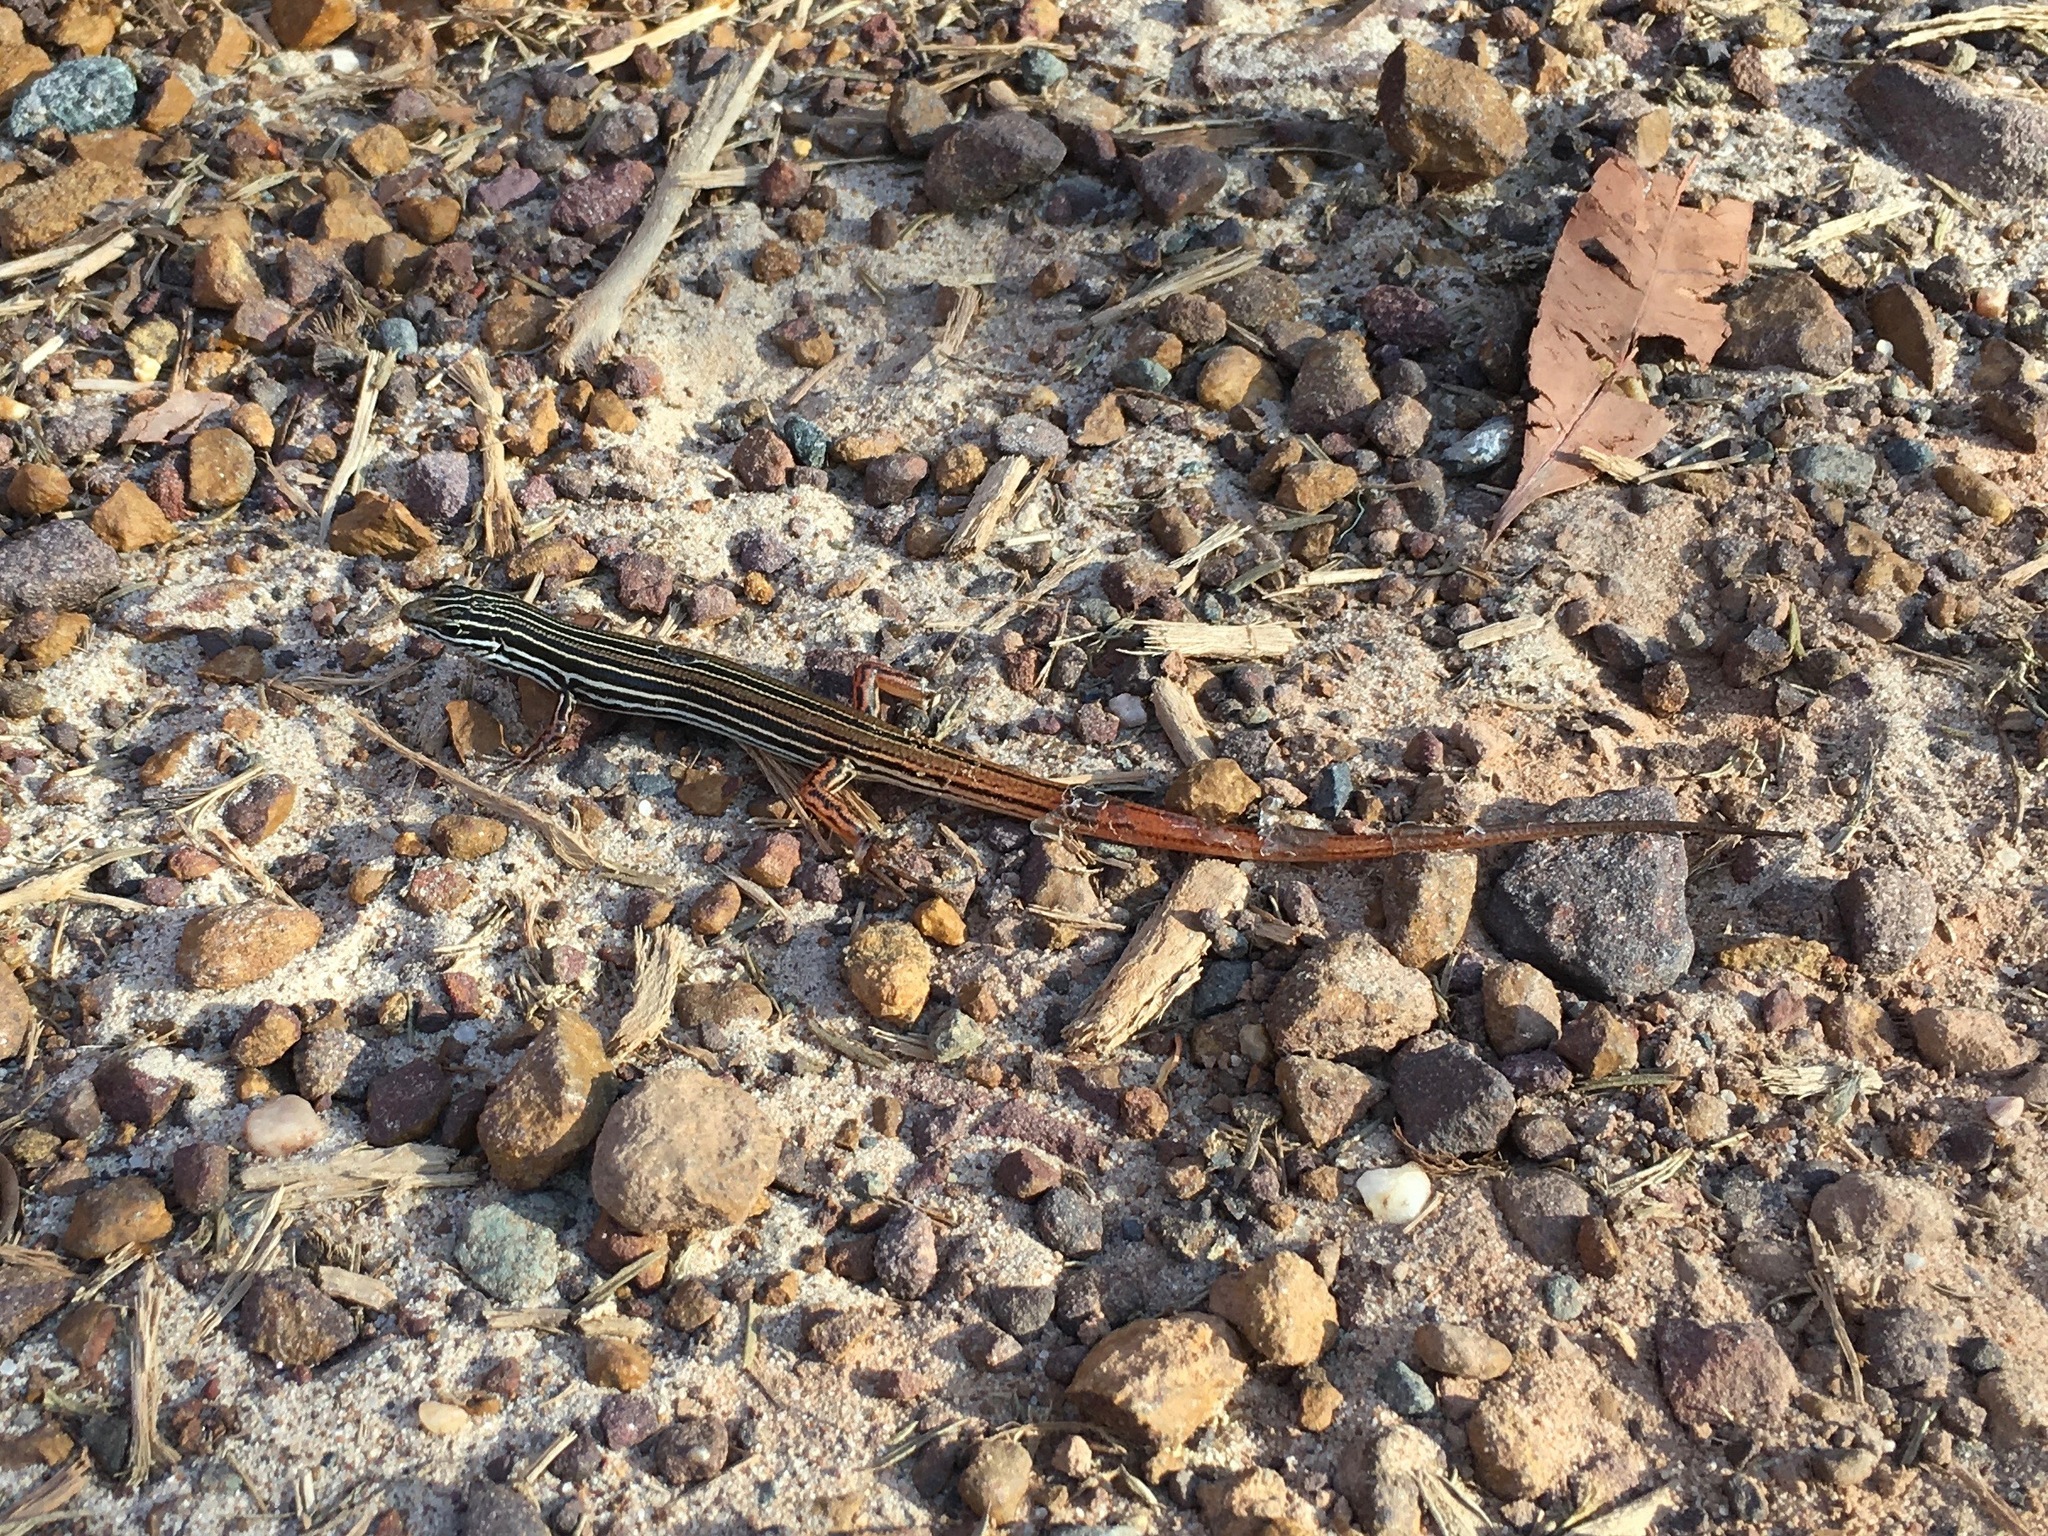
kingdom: Animalia
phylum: Chordata
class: Squamata
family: Scincidae
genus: Ctenotus
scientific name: Ctenotus taeniolatus
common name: Copper-tailed skink
